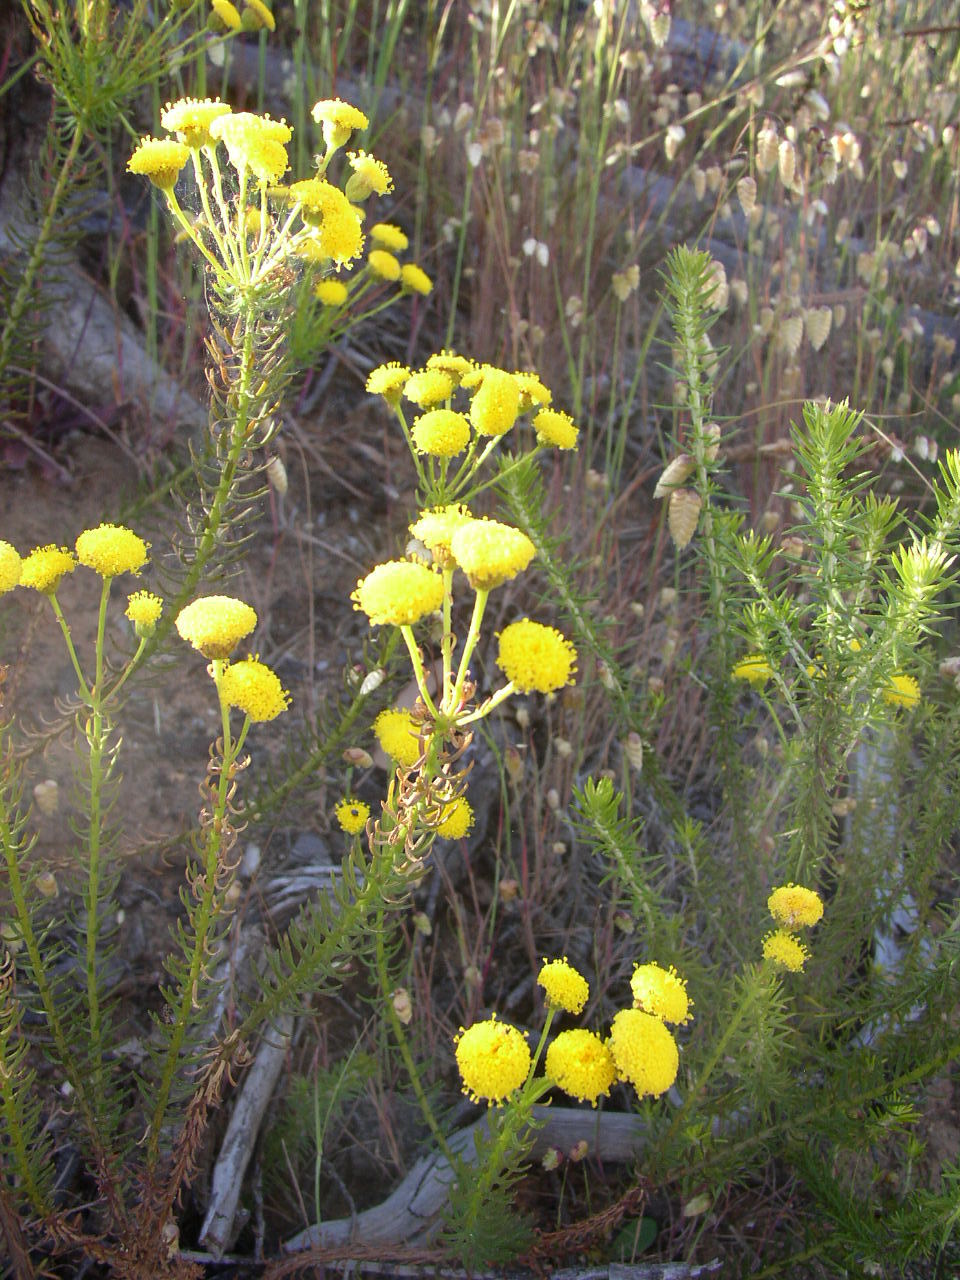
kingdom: Plantae
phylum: Tracheophyta
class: Magnoliopsida
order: Asterales
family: Asteraceae
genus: Chrysocoma
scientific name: Chrysocoma cernua
